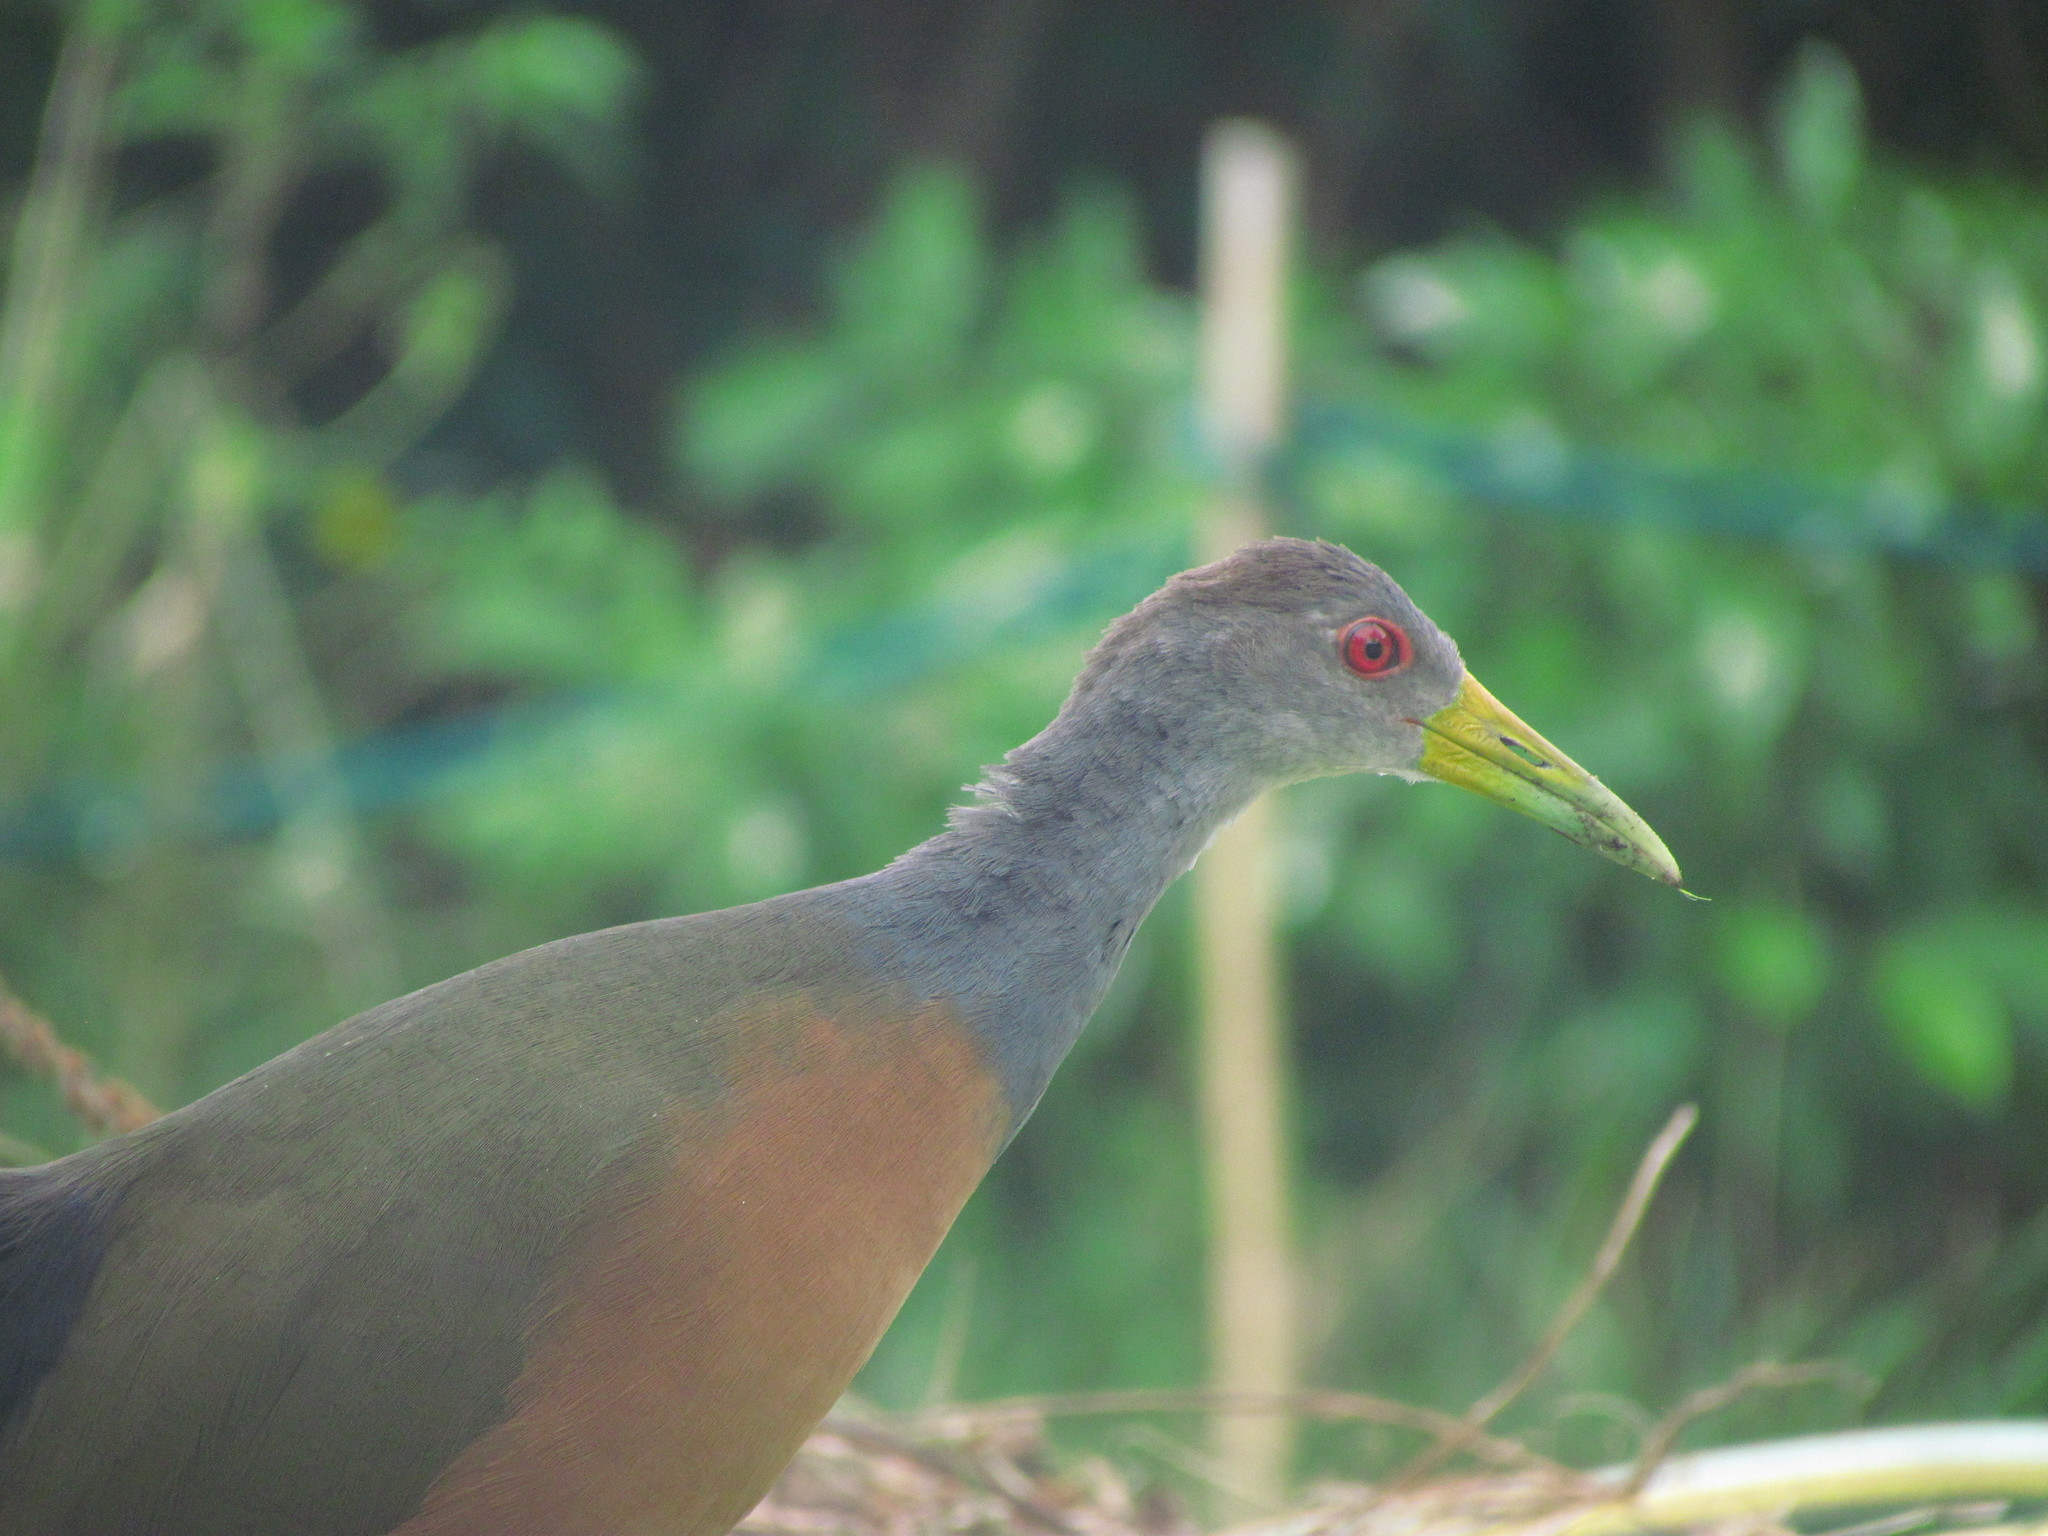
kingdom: Animalia
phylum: Chordata
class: Aves
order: Gruiformes
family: Rallidae
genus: Aramides
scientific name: Aramides cajanea
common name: Gray-necked wood-rail
